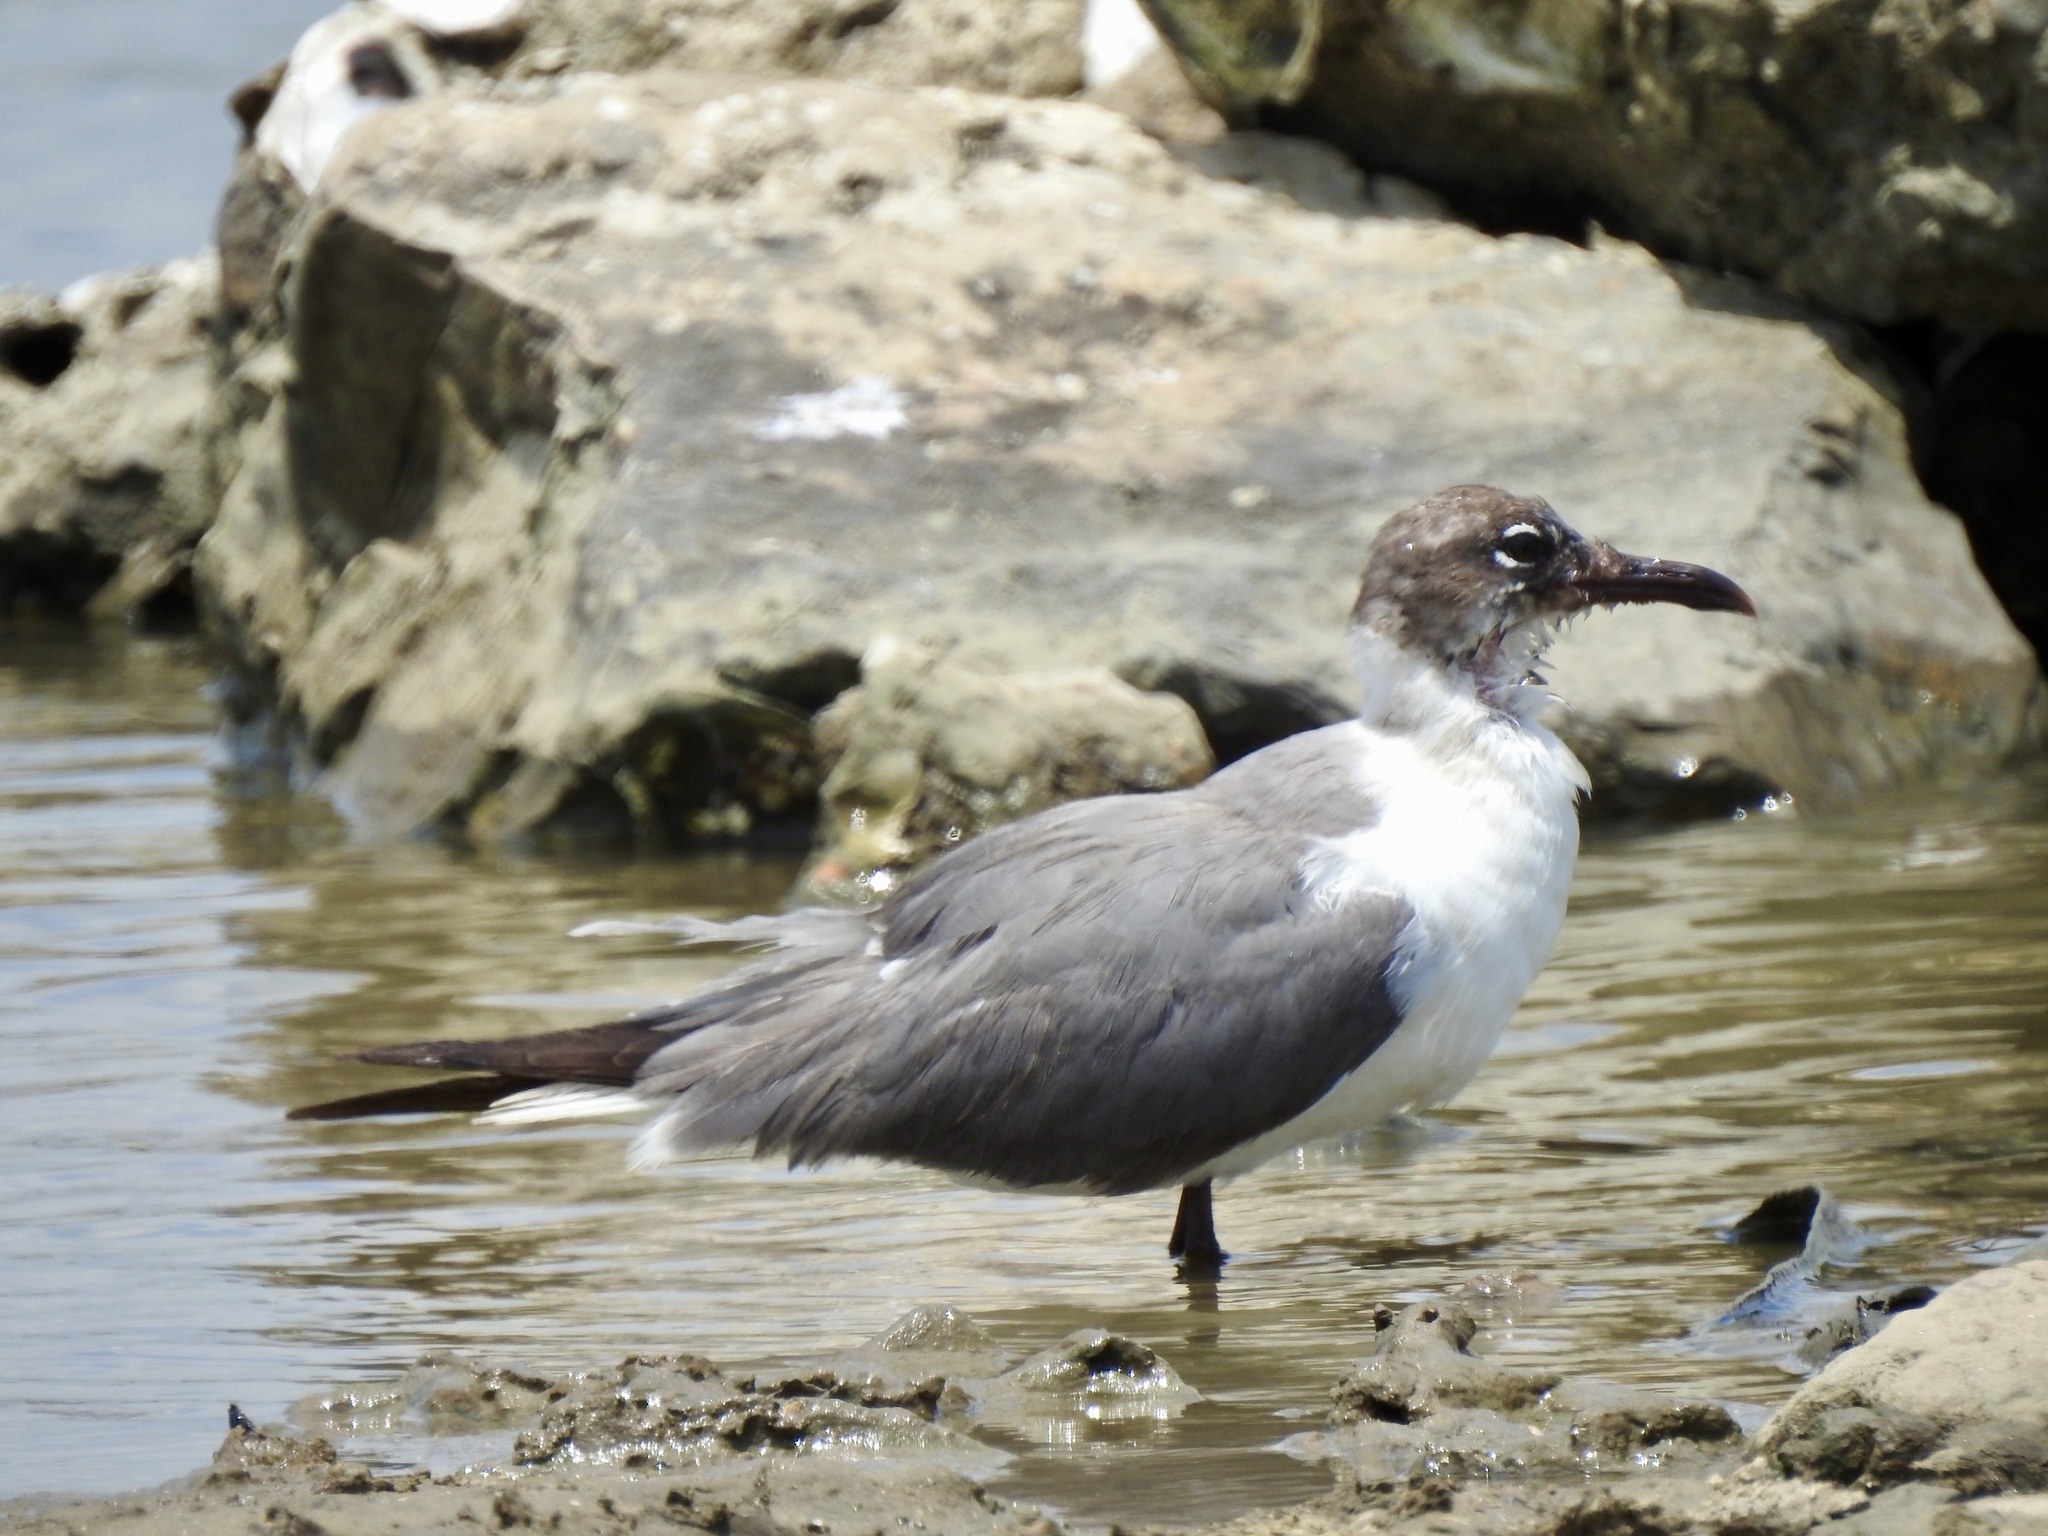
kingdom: Animalia
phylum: Chordata
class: Aves
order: Charadriiformes
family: Laridae
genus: Leucophaeus
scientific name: Leucophaeus atricilla
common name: Laughing gull
